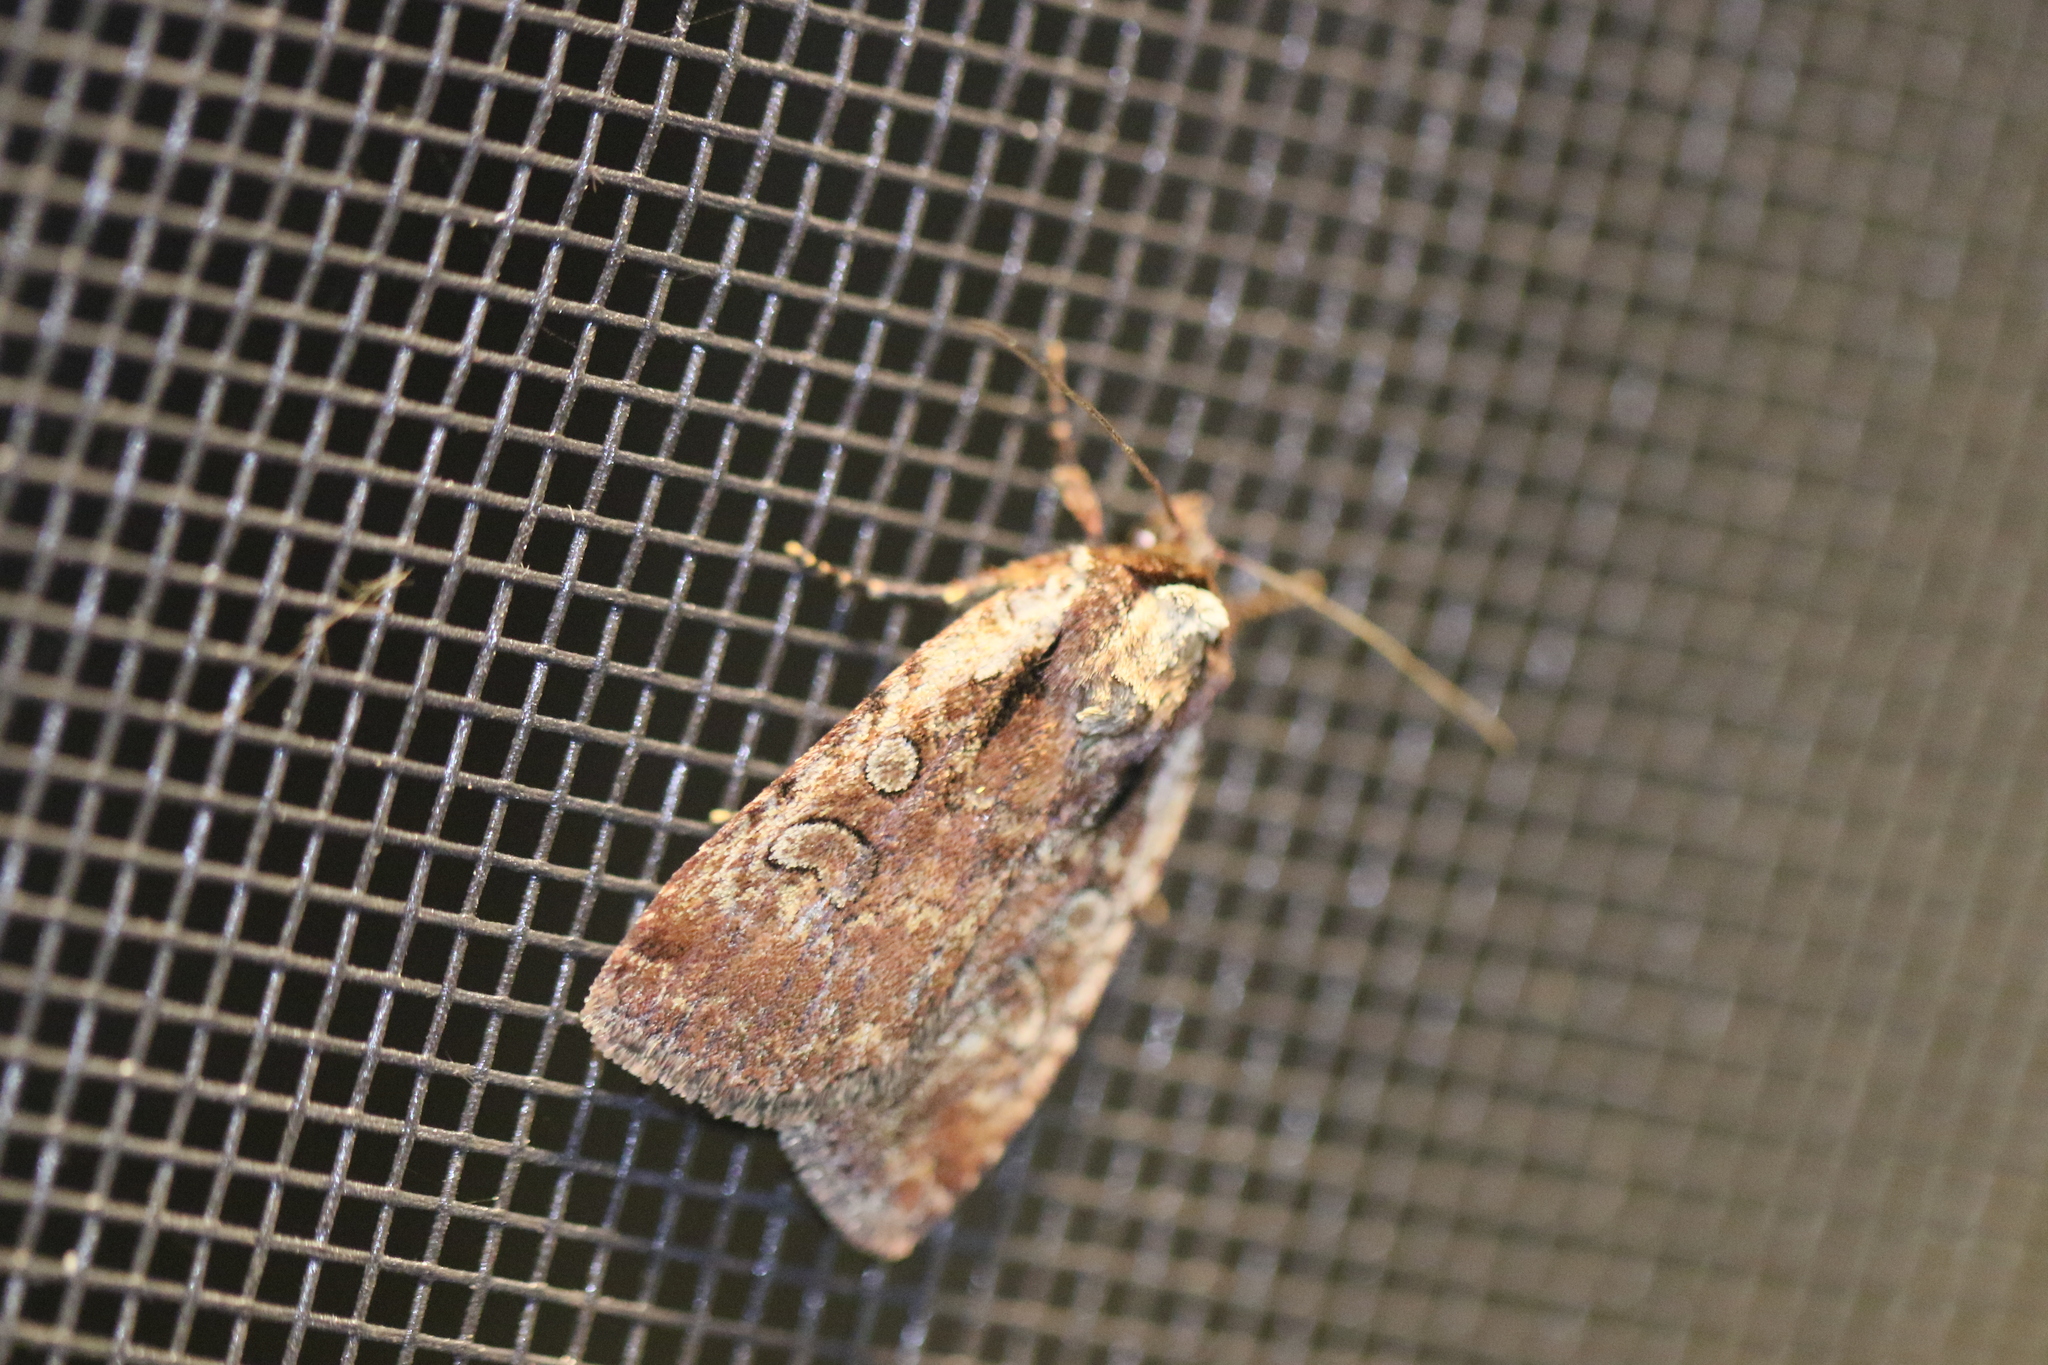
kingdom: Animalia
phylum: Arthropoda
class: Insecta
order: Lepidoptera
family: Noctuidae
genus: Eueretagrotis
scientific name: Eueretagrotis attentus
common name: Attentive dart
